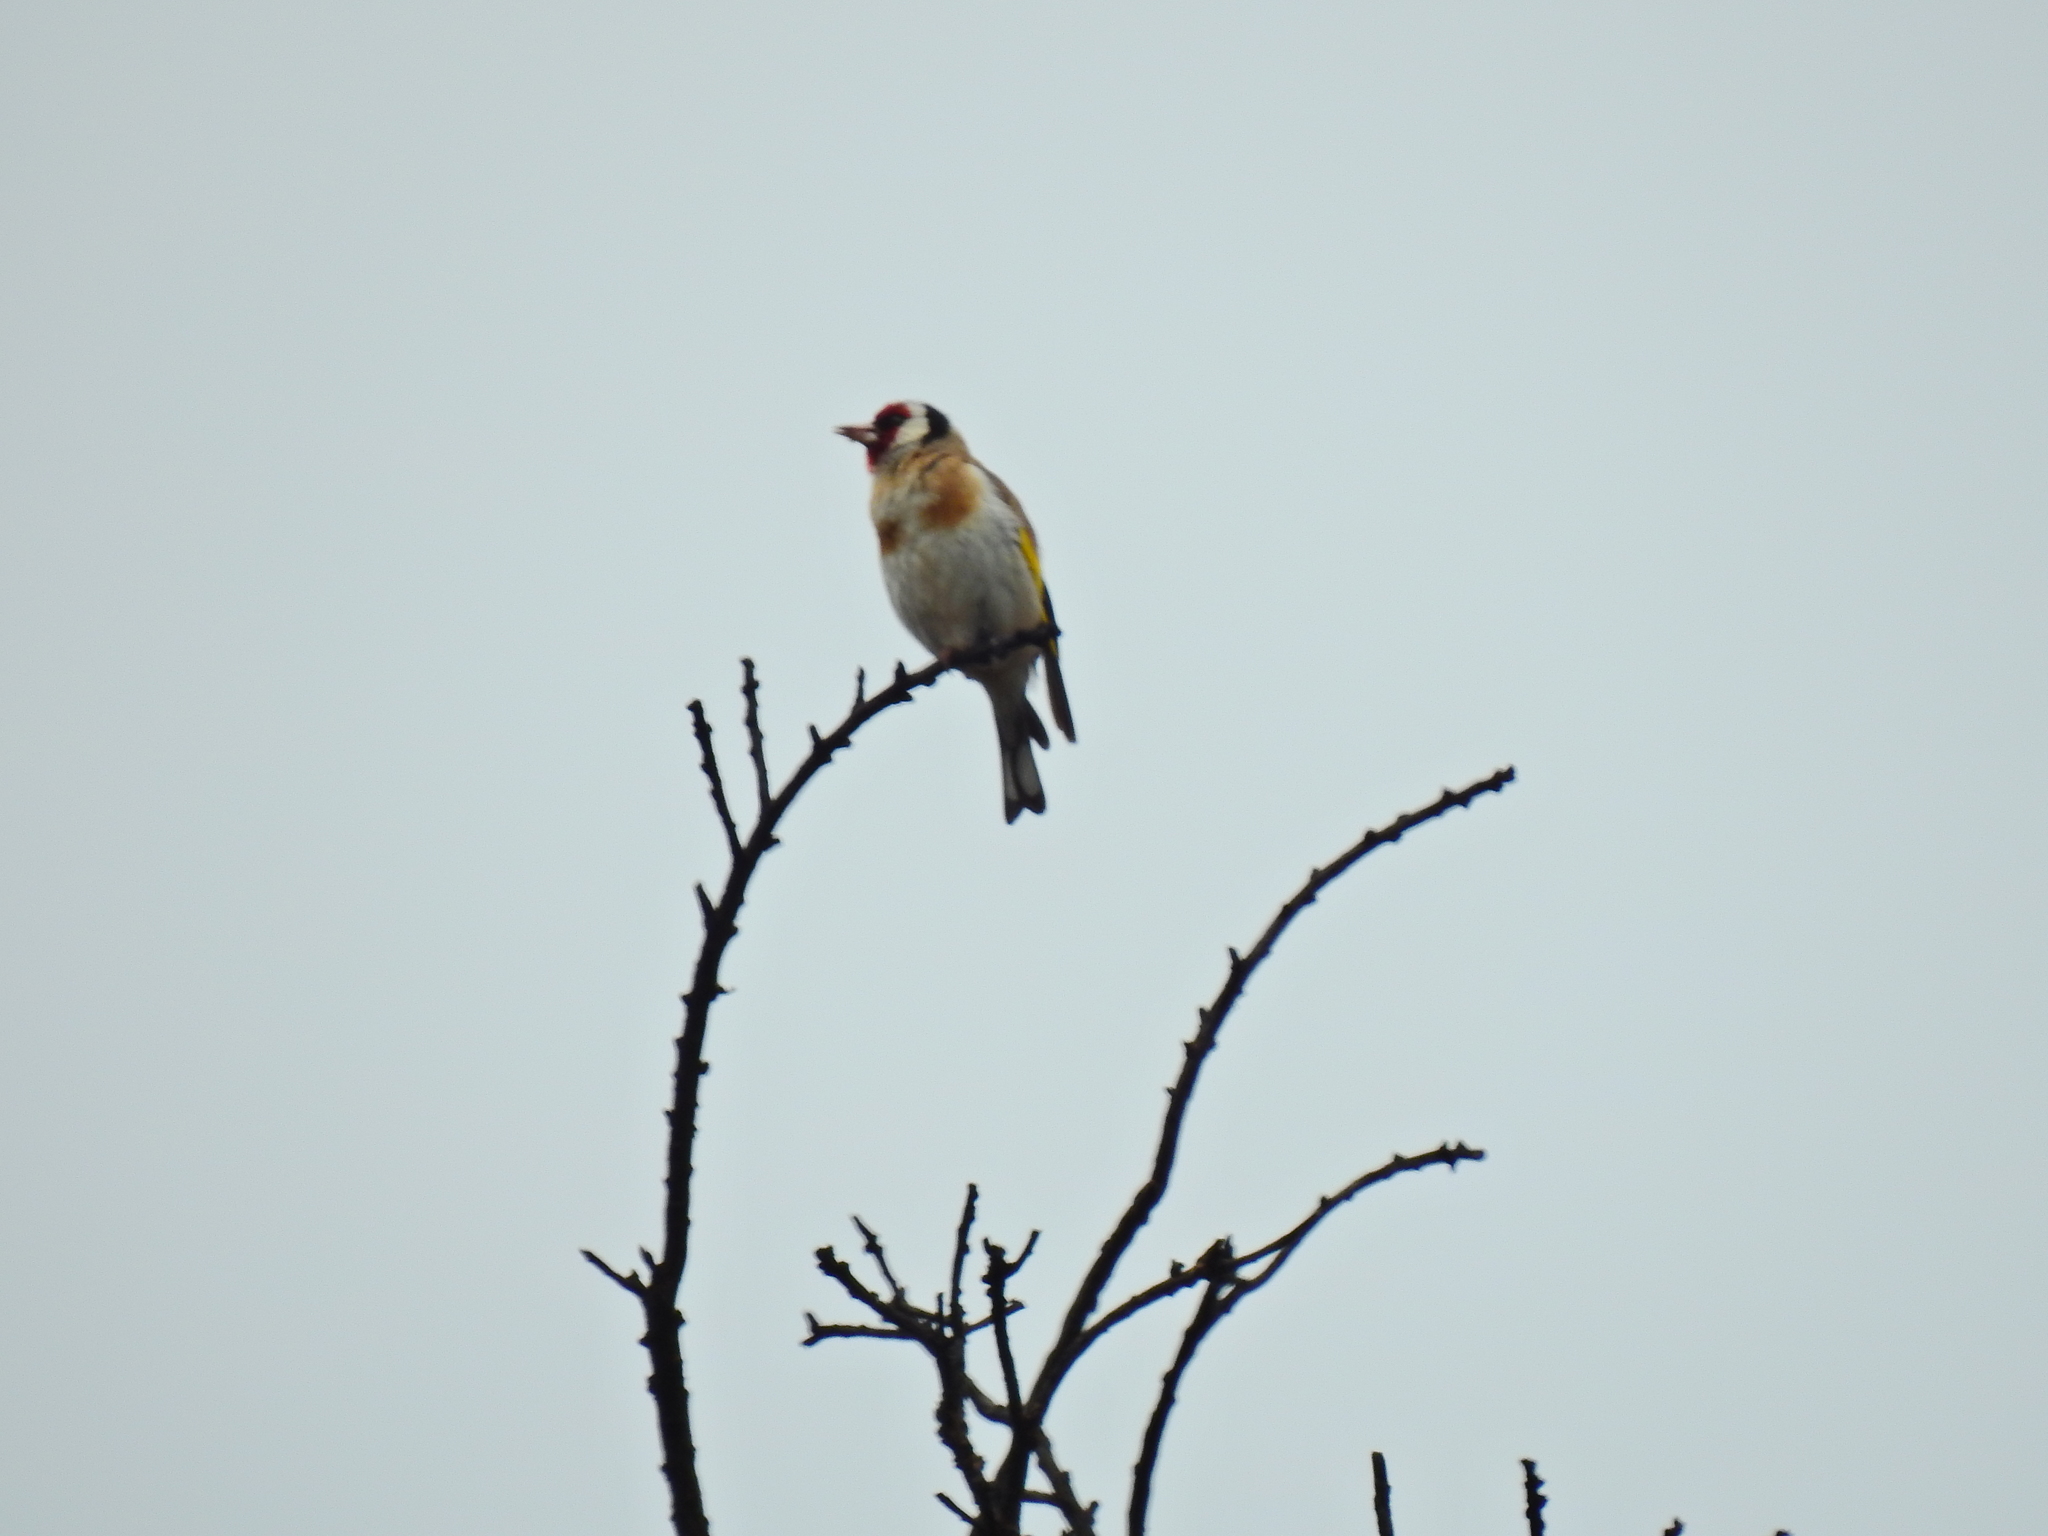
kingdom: Animalia
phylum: Chordata
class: Aves
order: Passeriformes
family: Fringillidae
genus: Carduelis
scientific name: Carduelis carduelis
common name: European goldfinch
